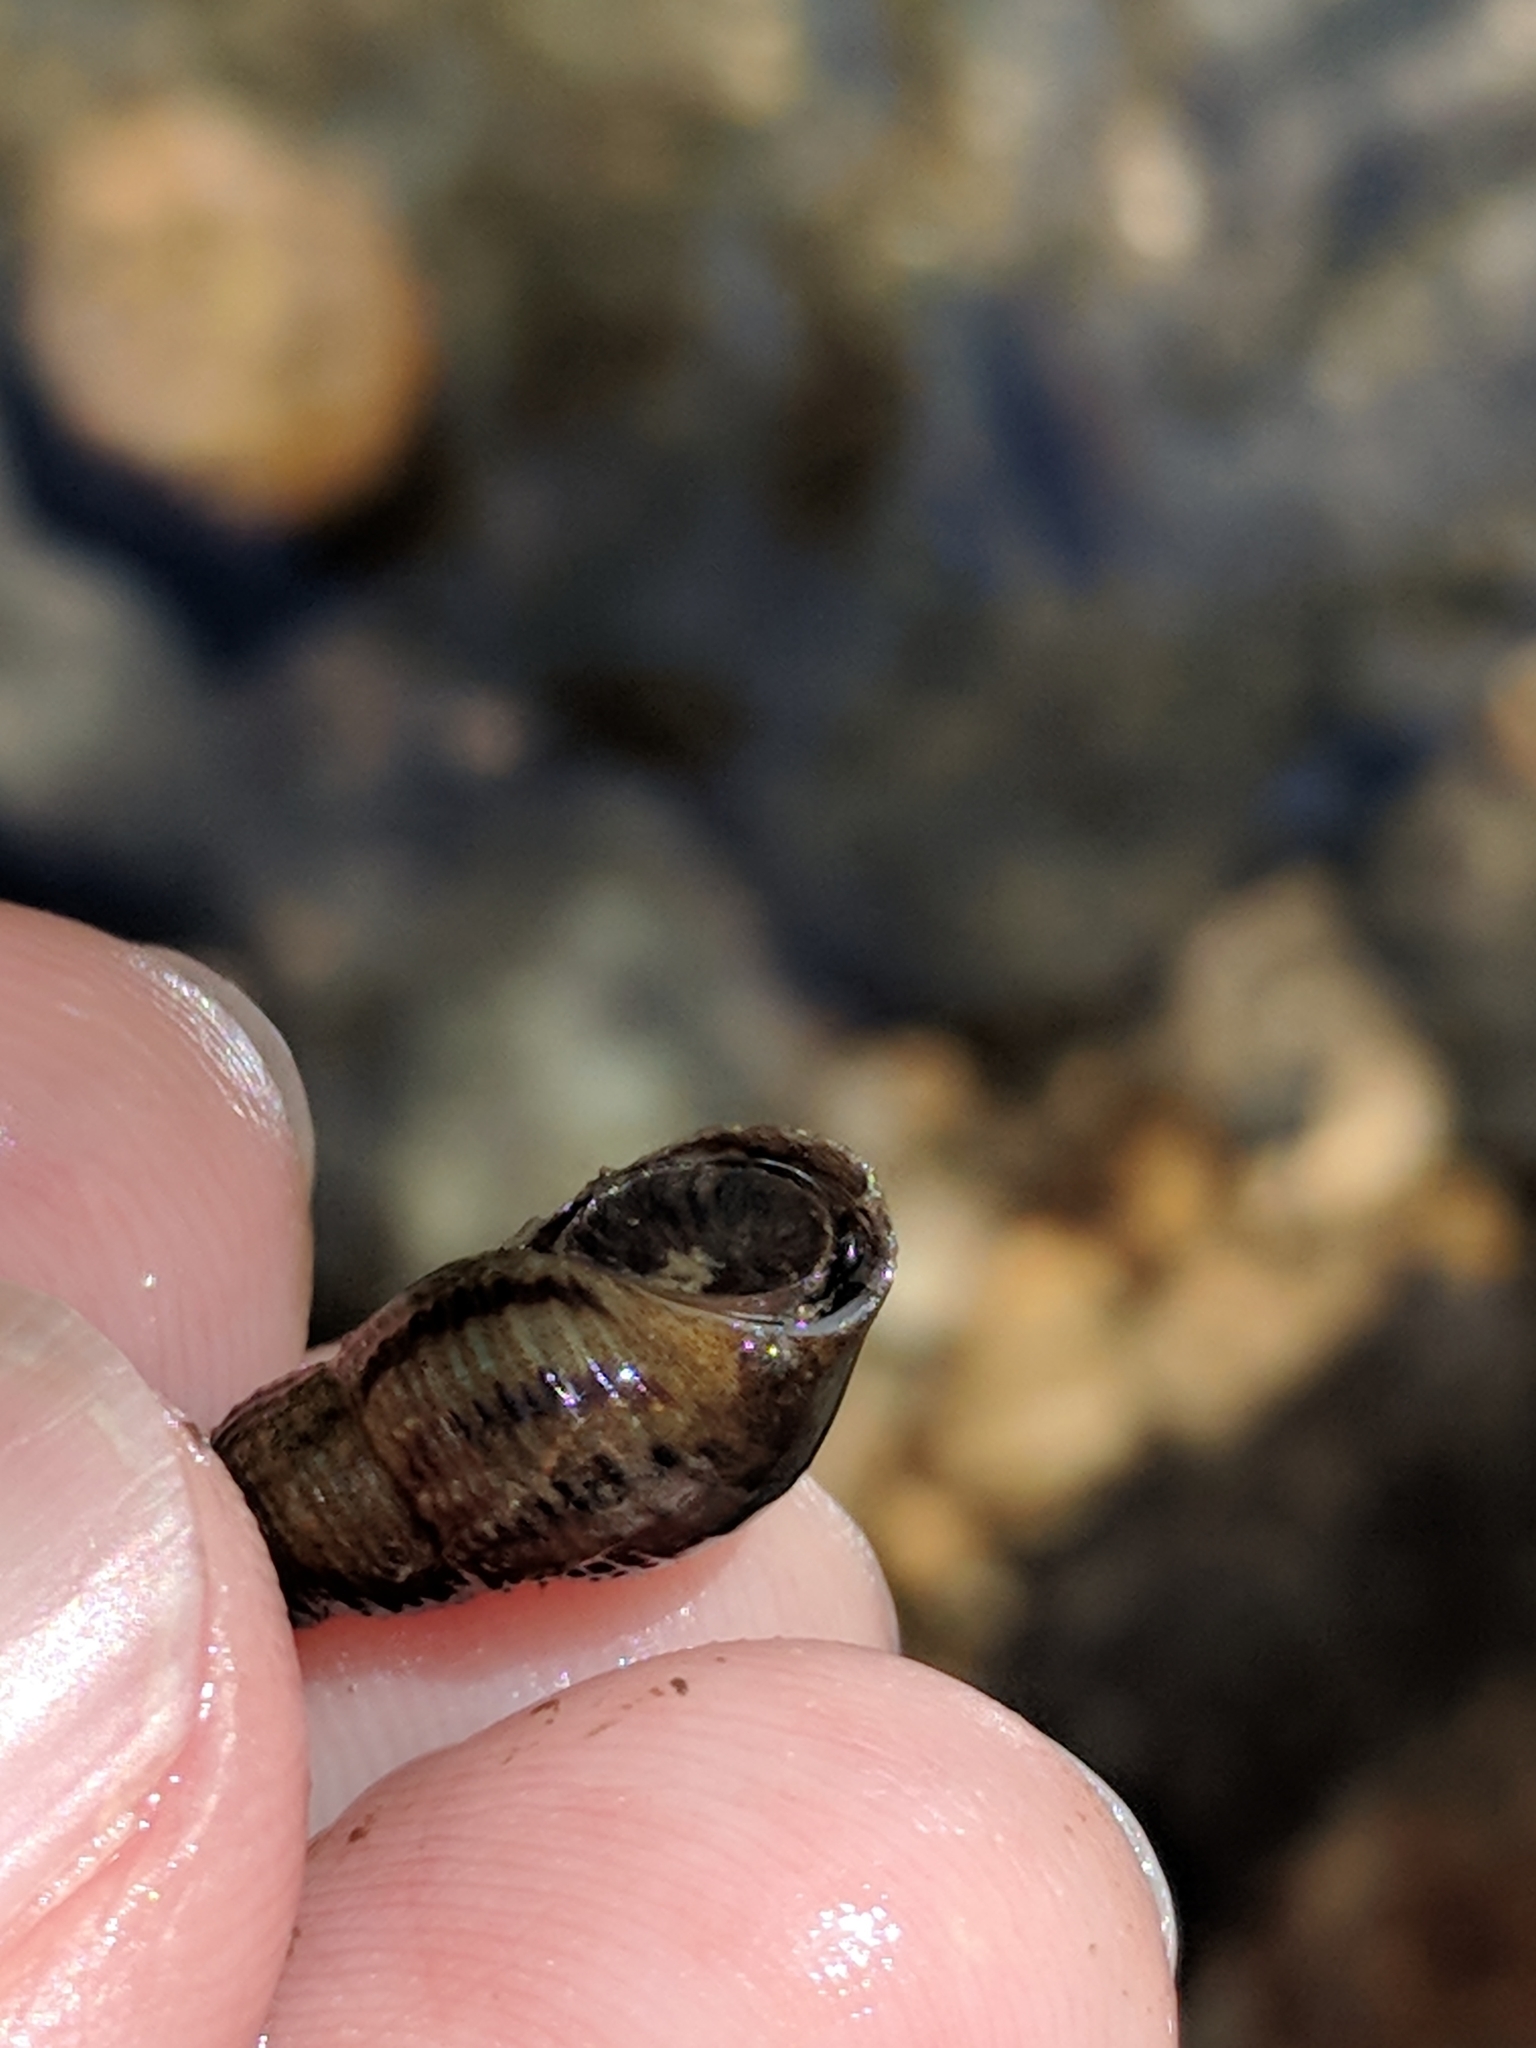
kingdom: Animalia
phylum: Mollusca
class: Gastropoda
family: Thiaridae
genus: Melanoides
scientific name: Melanoides tuberculata
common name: Red-rim melania
